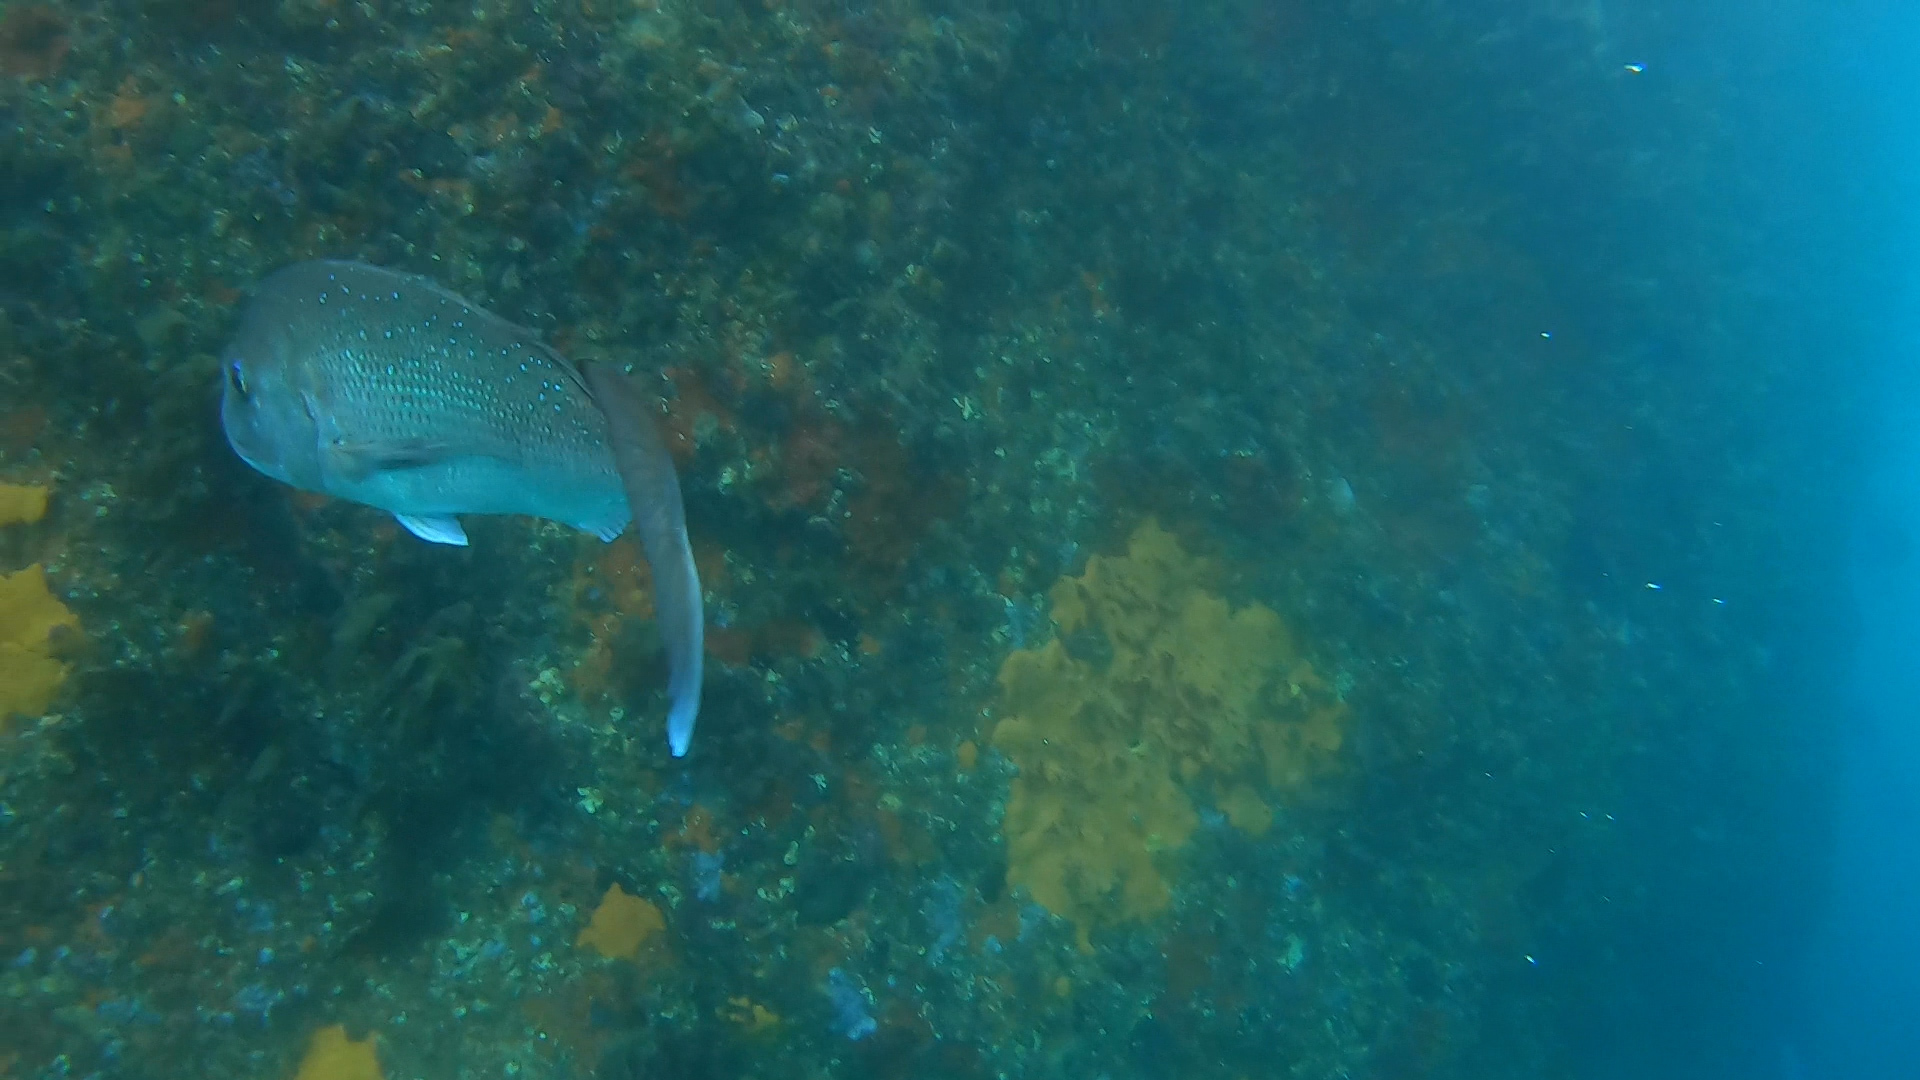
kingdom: Animalia
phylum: Chordata
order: Perciformes
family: Sparidae
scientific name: Sparidae
